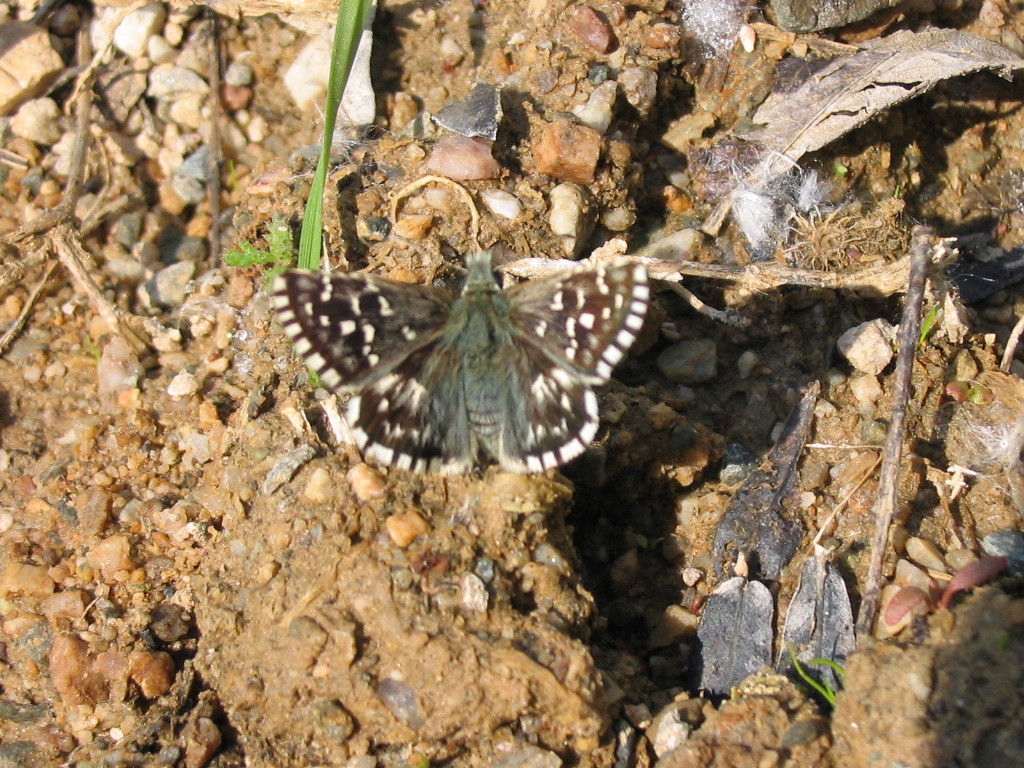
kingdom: Animalia
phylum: Arthropoda
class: Insecta
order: Lepidoptera
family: Hesperiidae
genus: Pyrgus
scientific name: Pyrgus malvae
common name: Grizzled skipper
